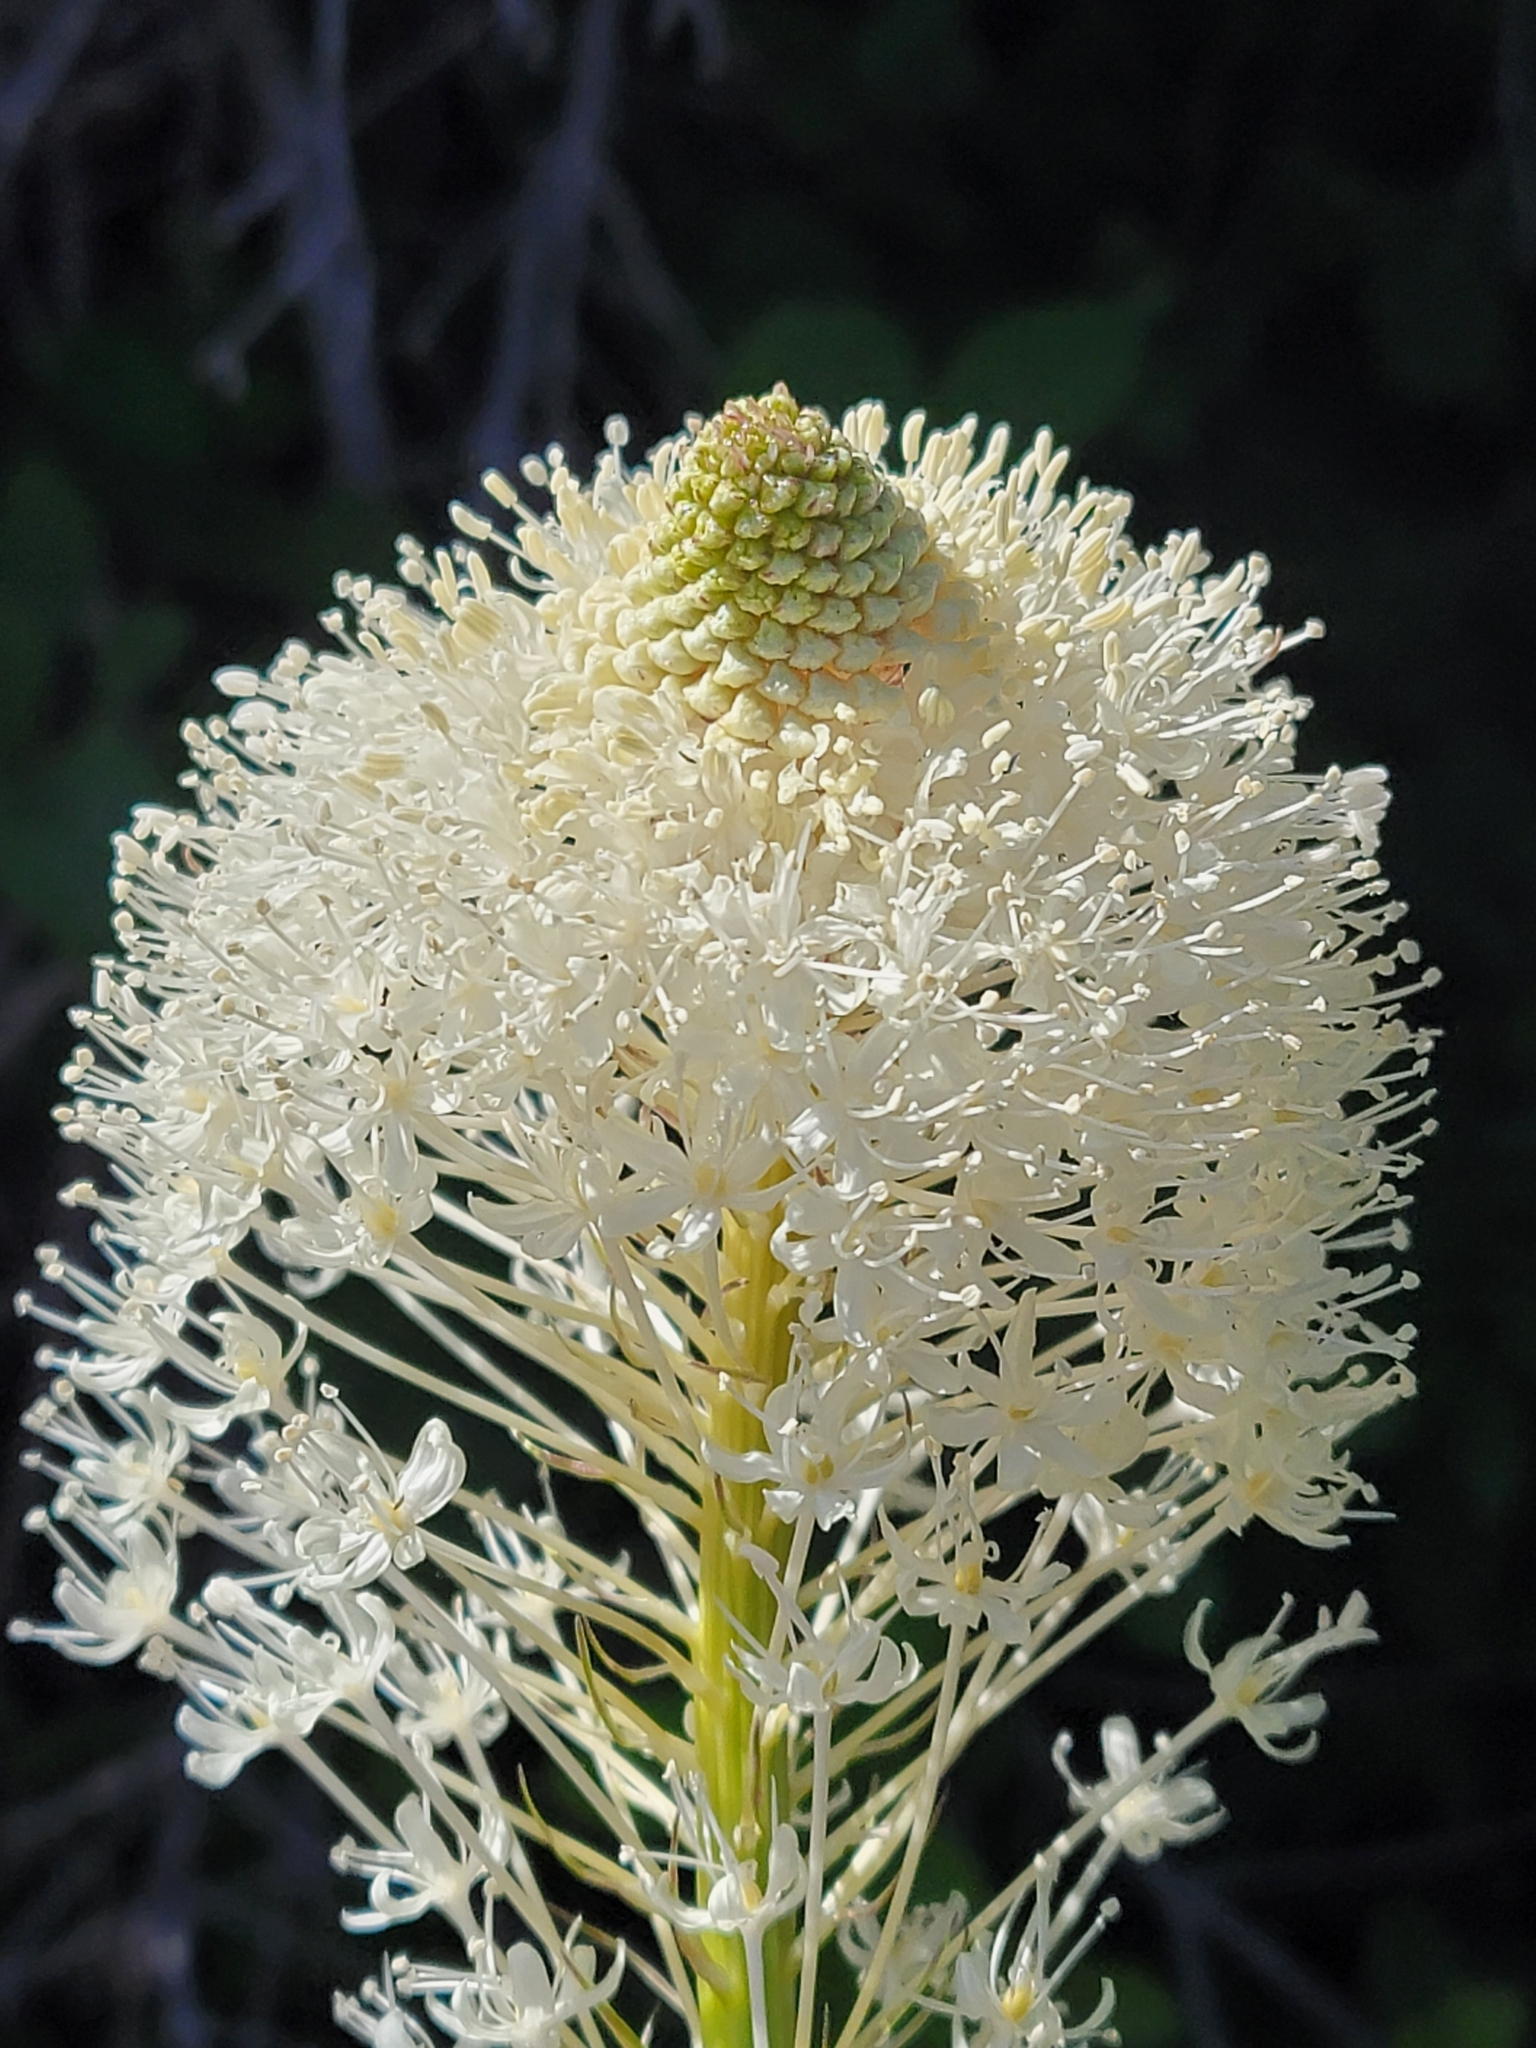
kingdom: Plantae
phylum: Tracheophyta
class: Liliopsida
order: Liliales
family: Melanthiaceae
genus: Xerophyllum
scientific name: Xerophyllum tenax
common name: Bear-grass
